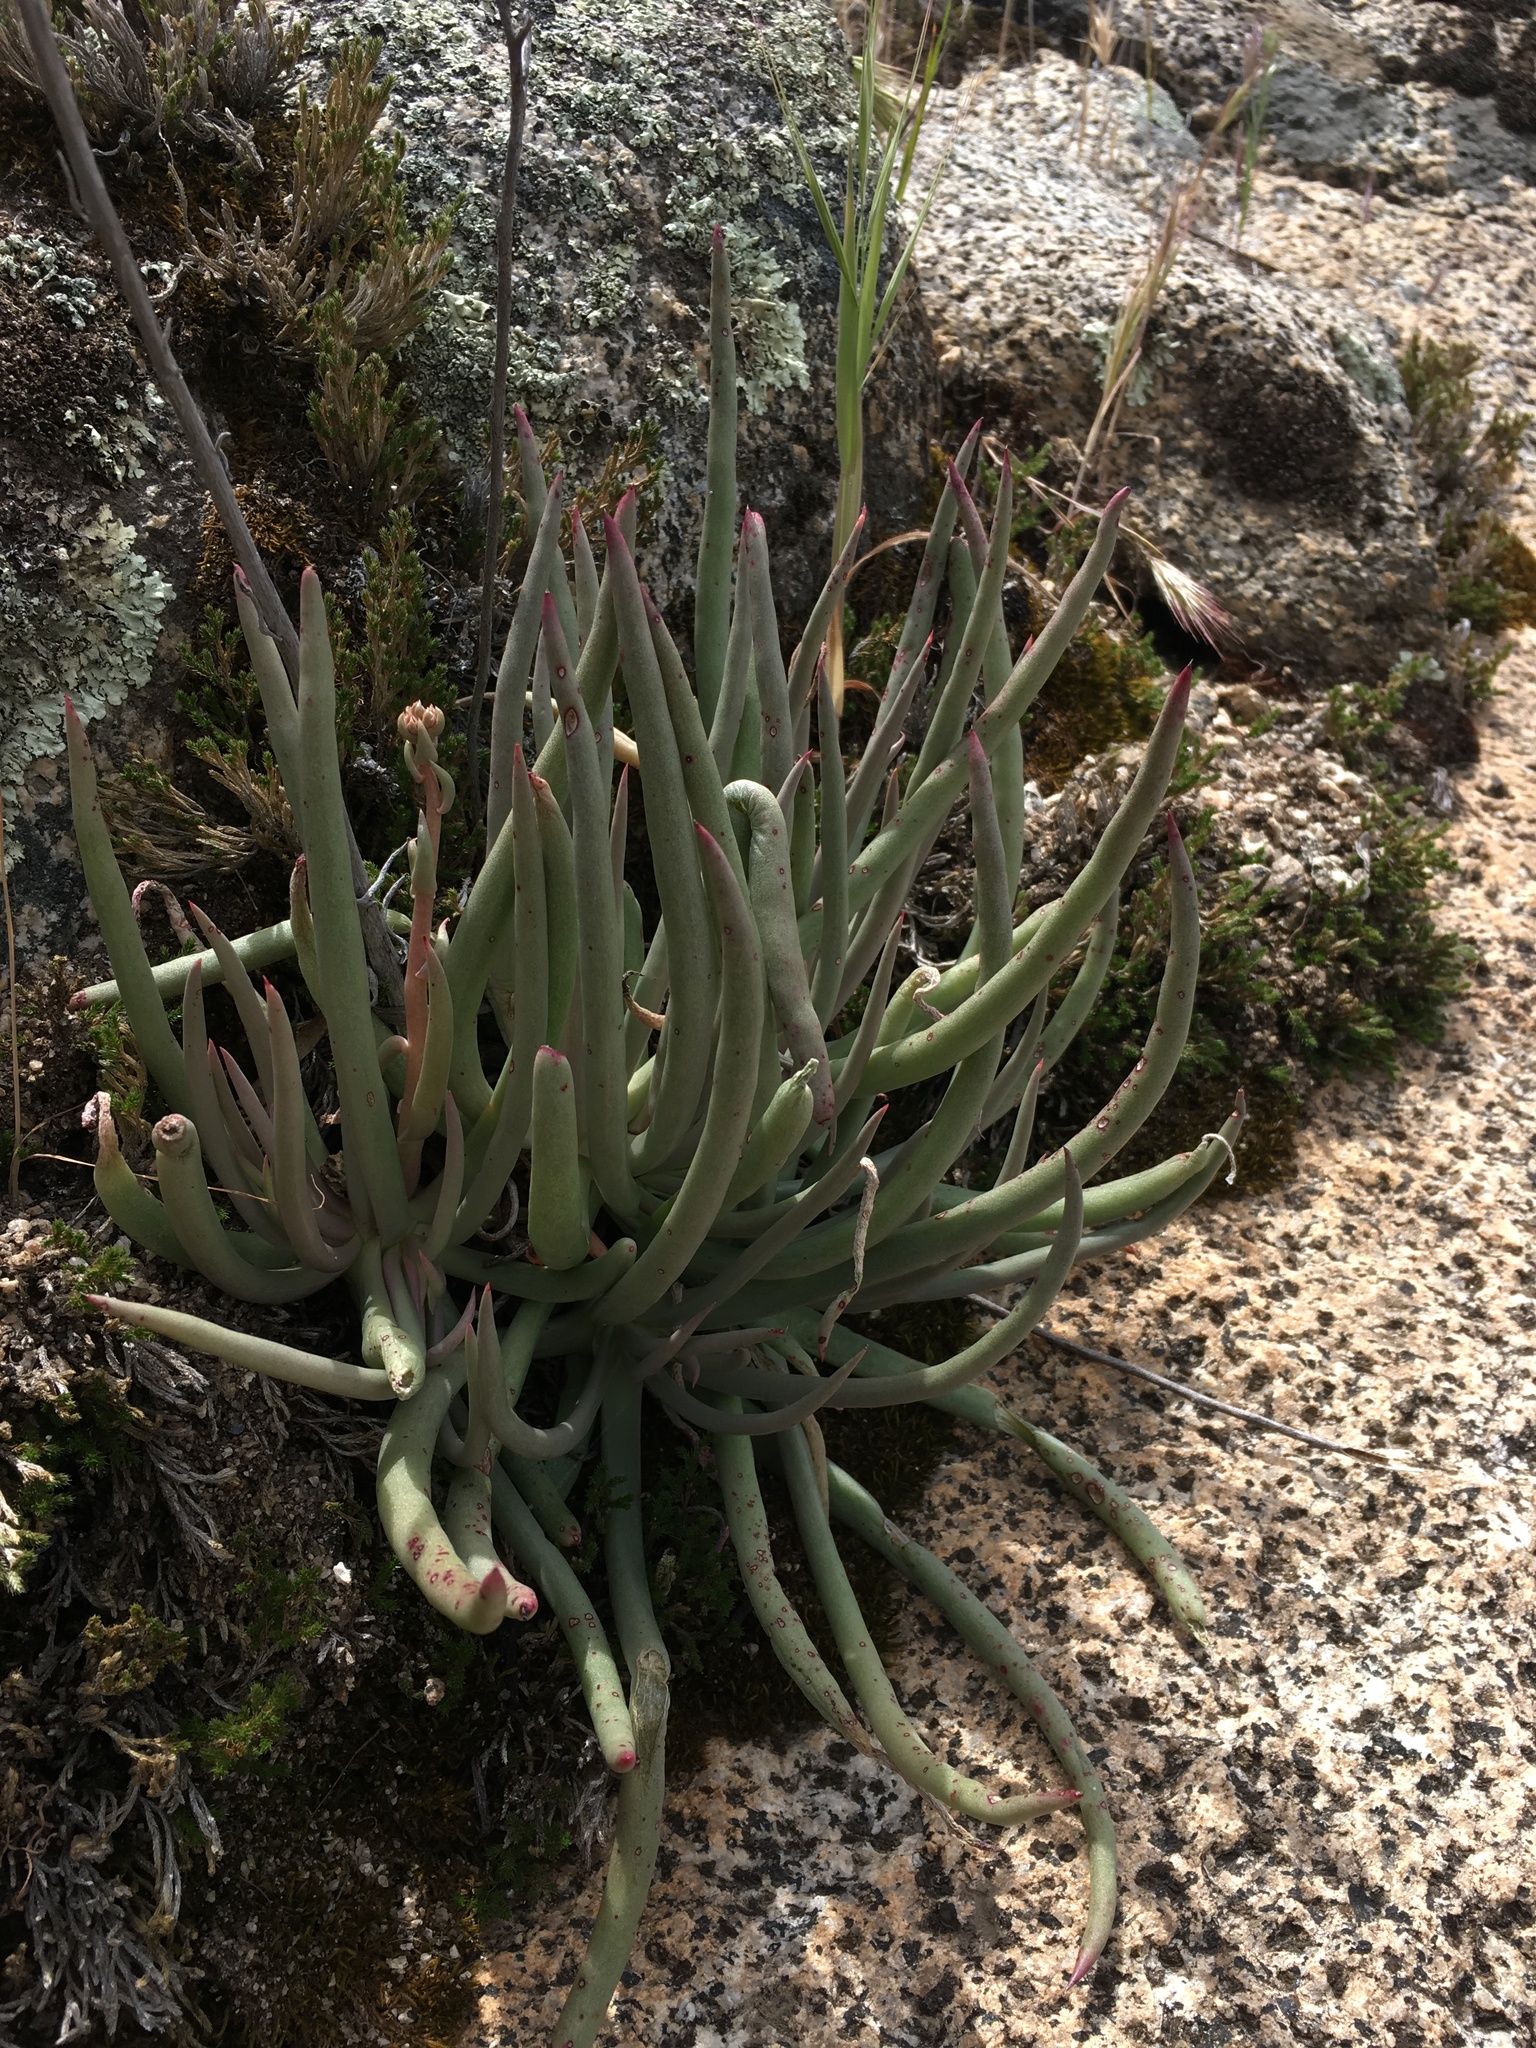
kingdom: Plantae
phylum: Tracheophyta
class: Magnoliopsida
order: Saxifragales
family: Crassulaceae
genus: Dudleya
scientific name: Dudleya edulis
